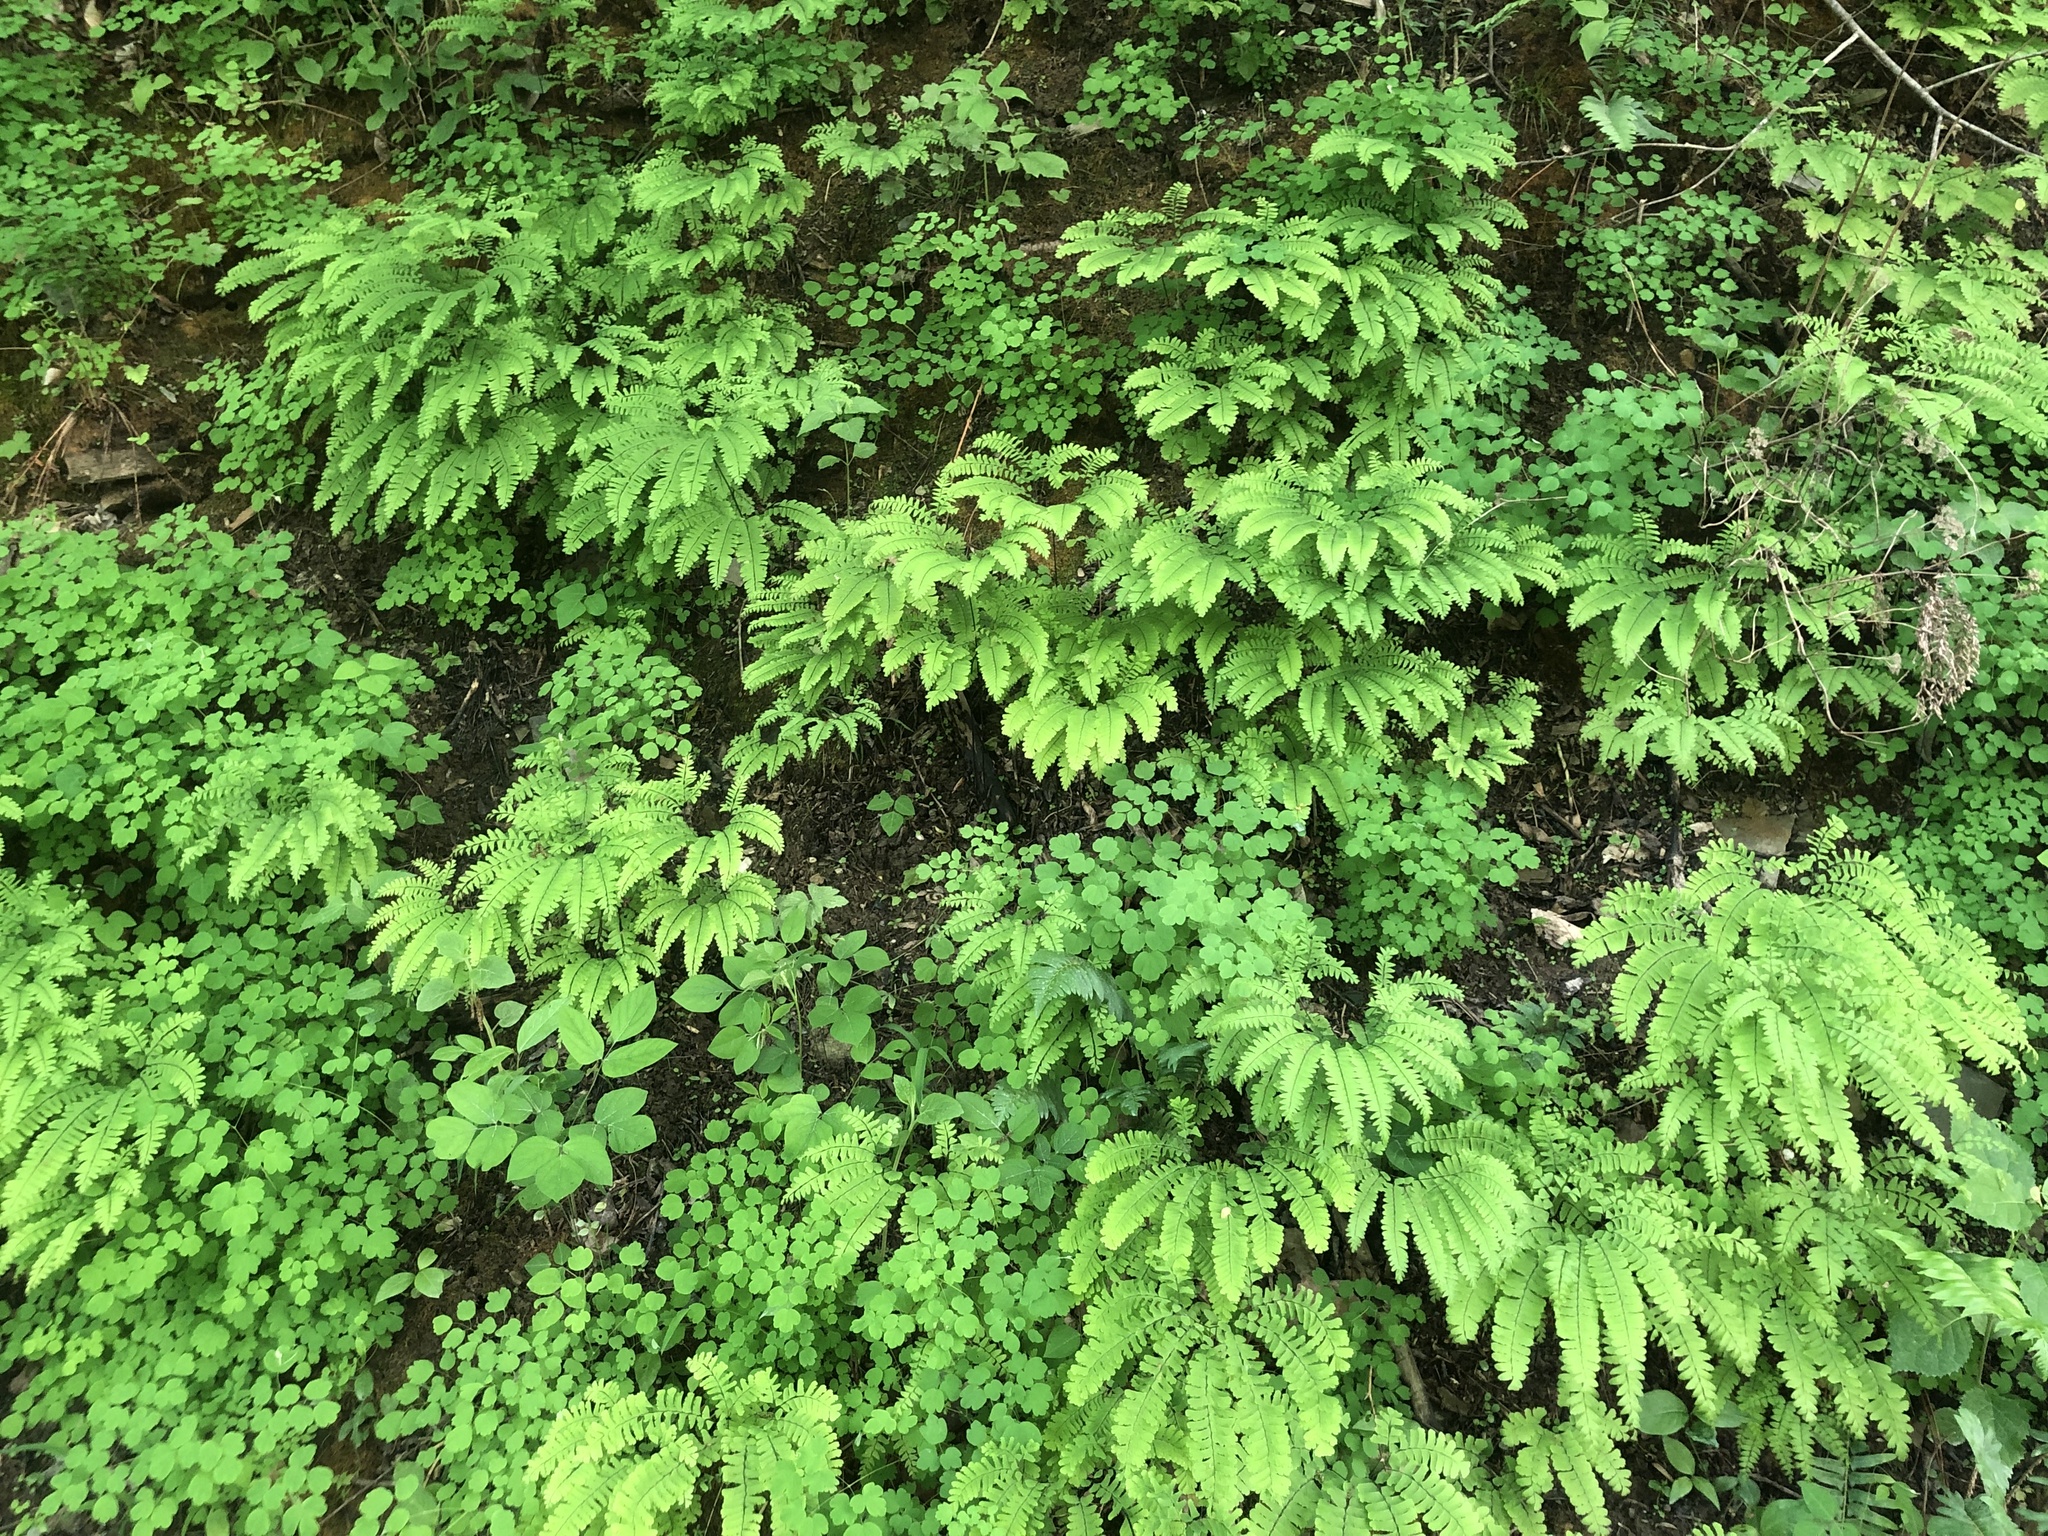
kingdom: Plantae
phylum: Tracheophyta
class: Polypodiopsida
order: Polypodiales
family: Pteridaceae
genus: Adiantum
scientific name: Adiantum pedatum
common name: Five-finger fern
